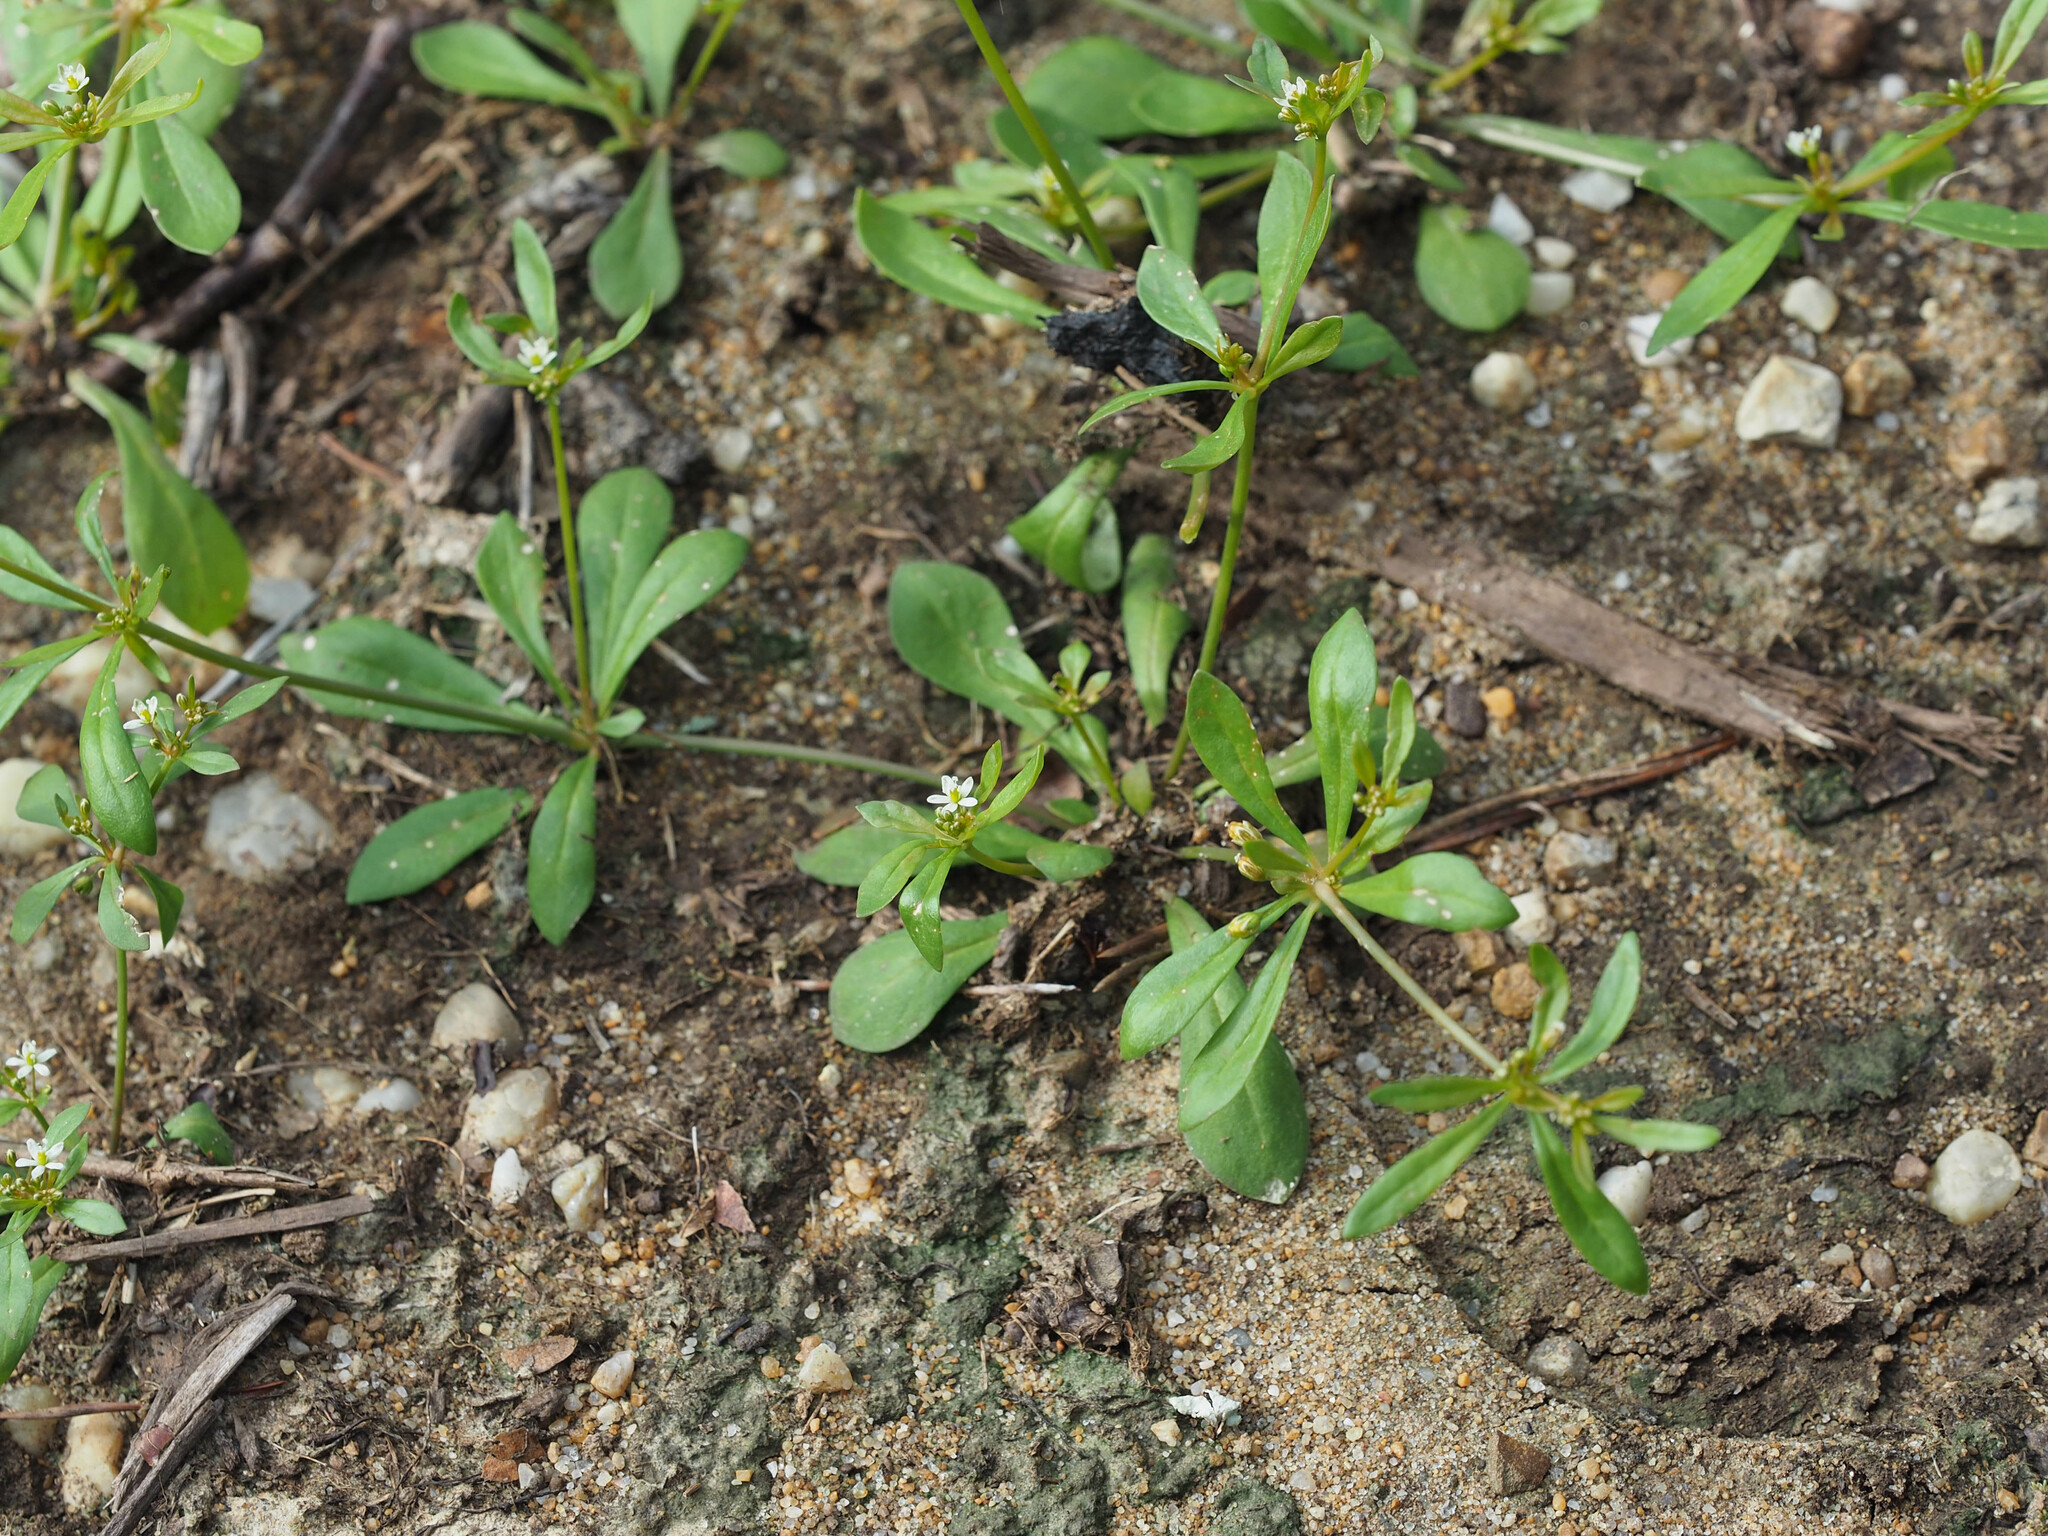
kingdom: Plantae
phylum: Tracheophyta
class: Magnoliopsida
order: Caryophyllales
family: Molluginaceae
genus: Mollugo
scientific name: Mollugo verticillata
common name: Green carpetweed
